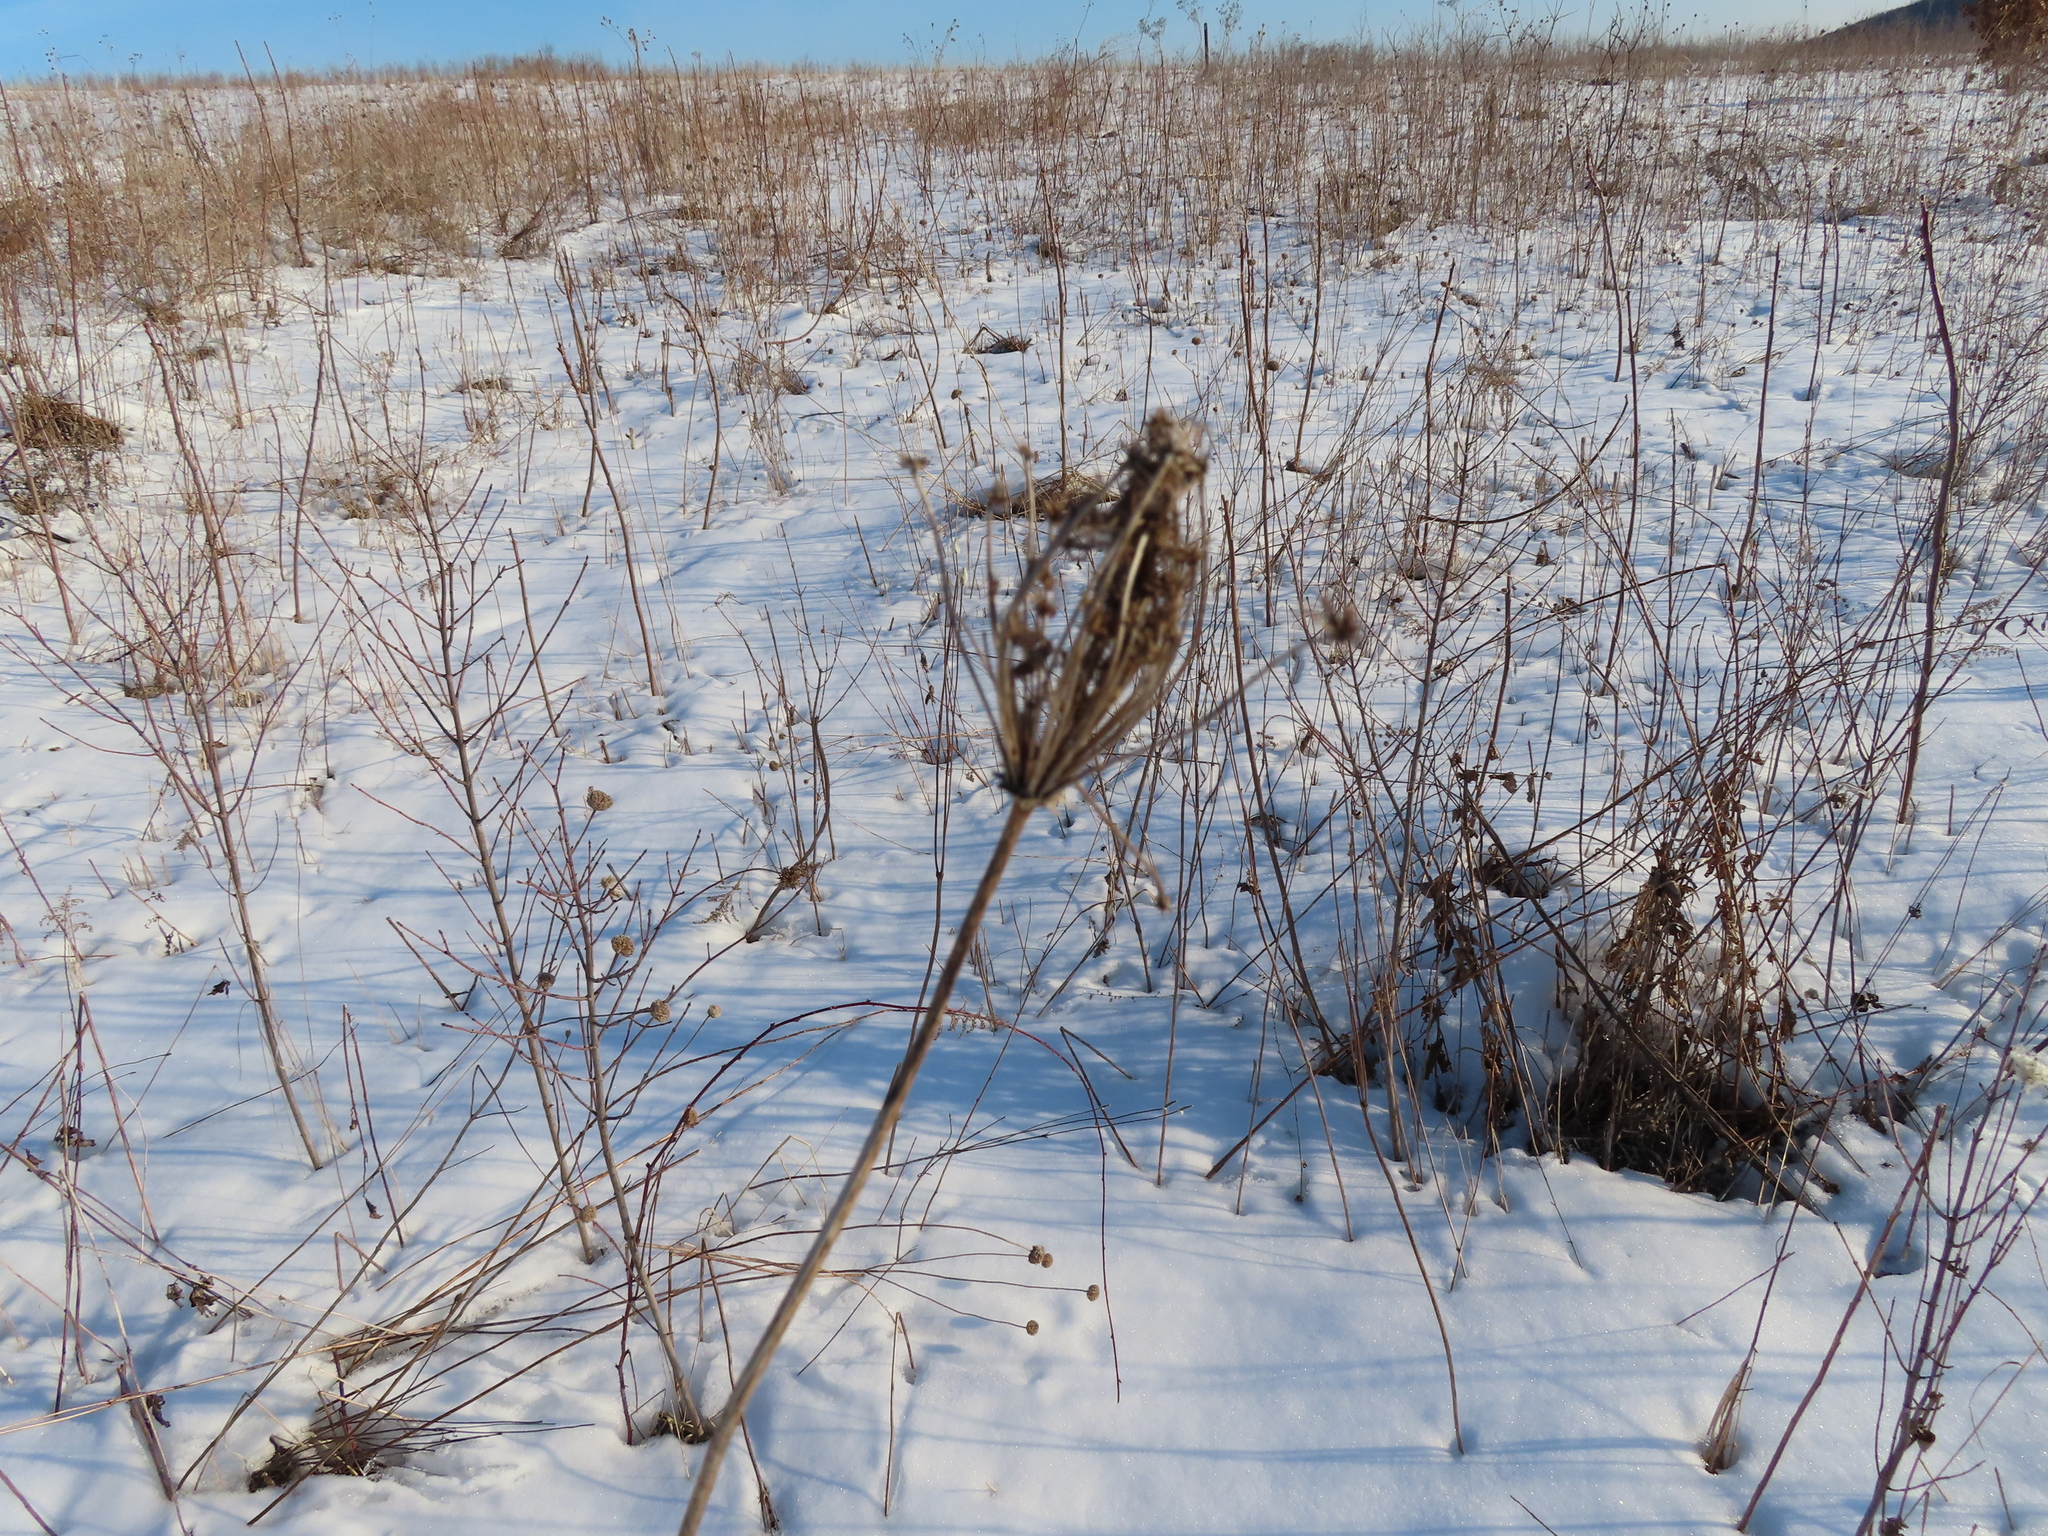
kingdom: Plantae
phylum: Tracheophyta
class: Magnoliopsida
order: Apiales
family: Apiaceae
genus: Daucus
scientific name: Daucus carota
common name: Wild carrot
